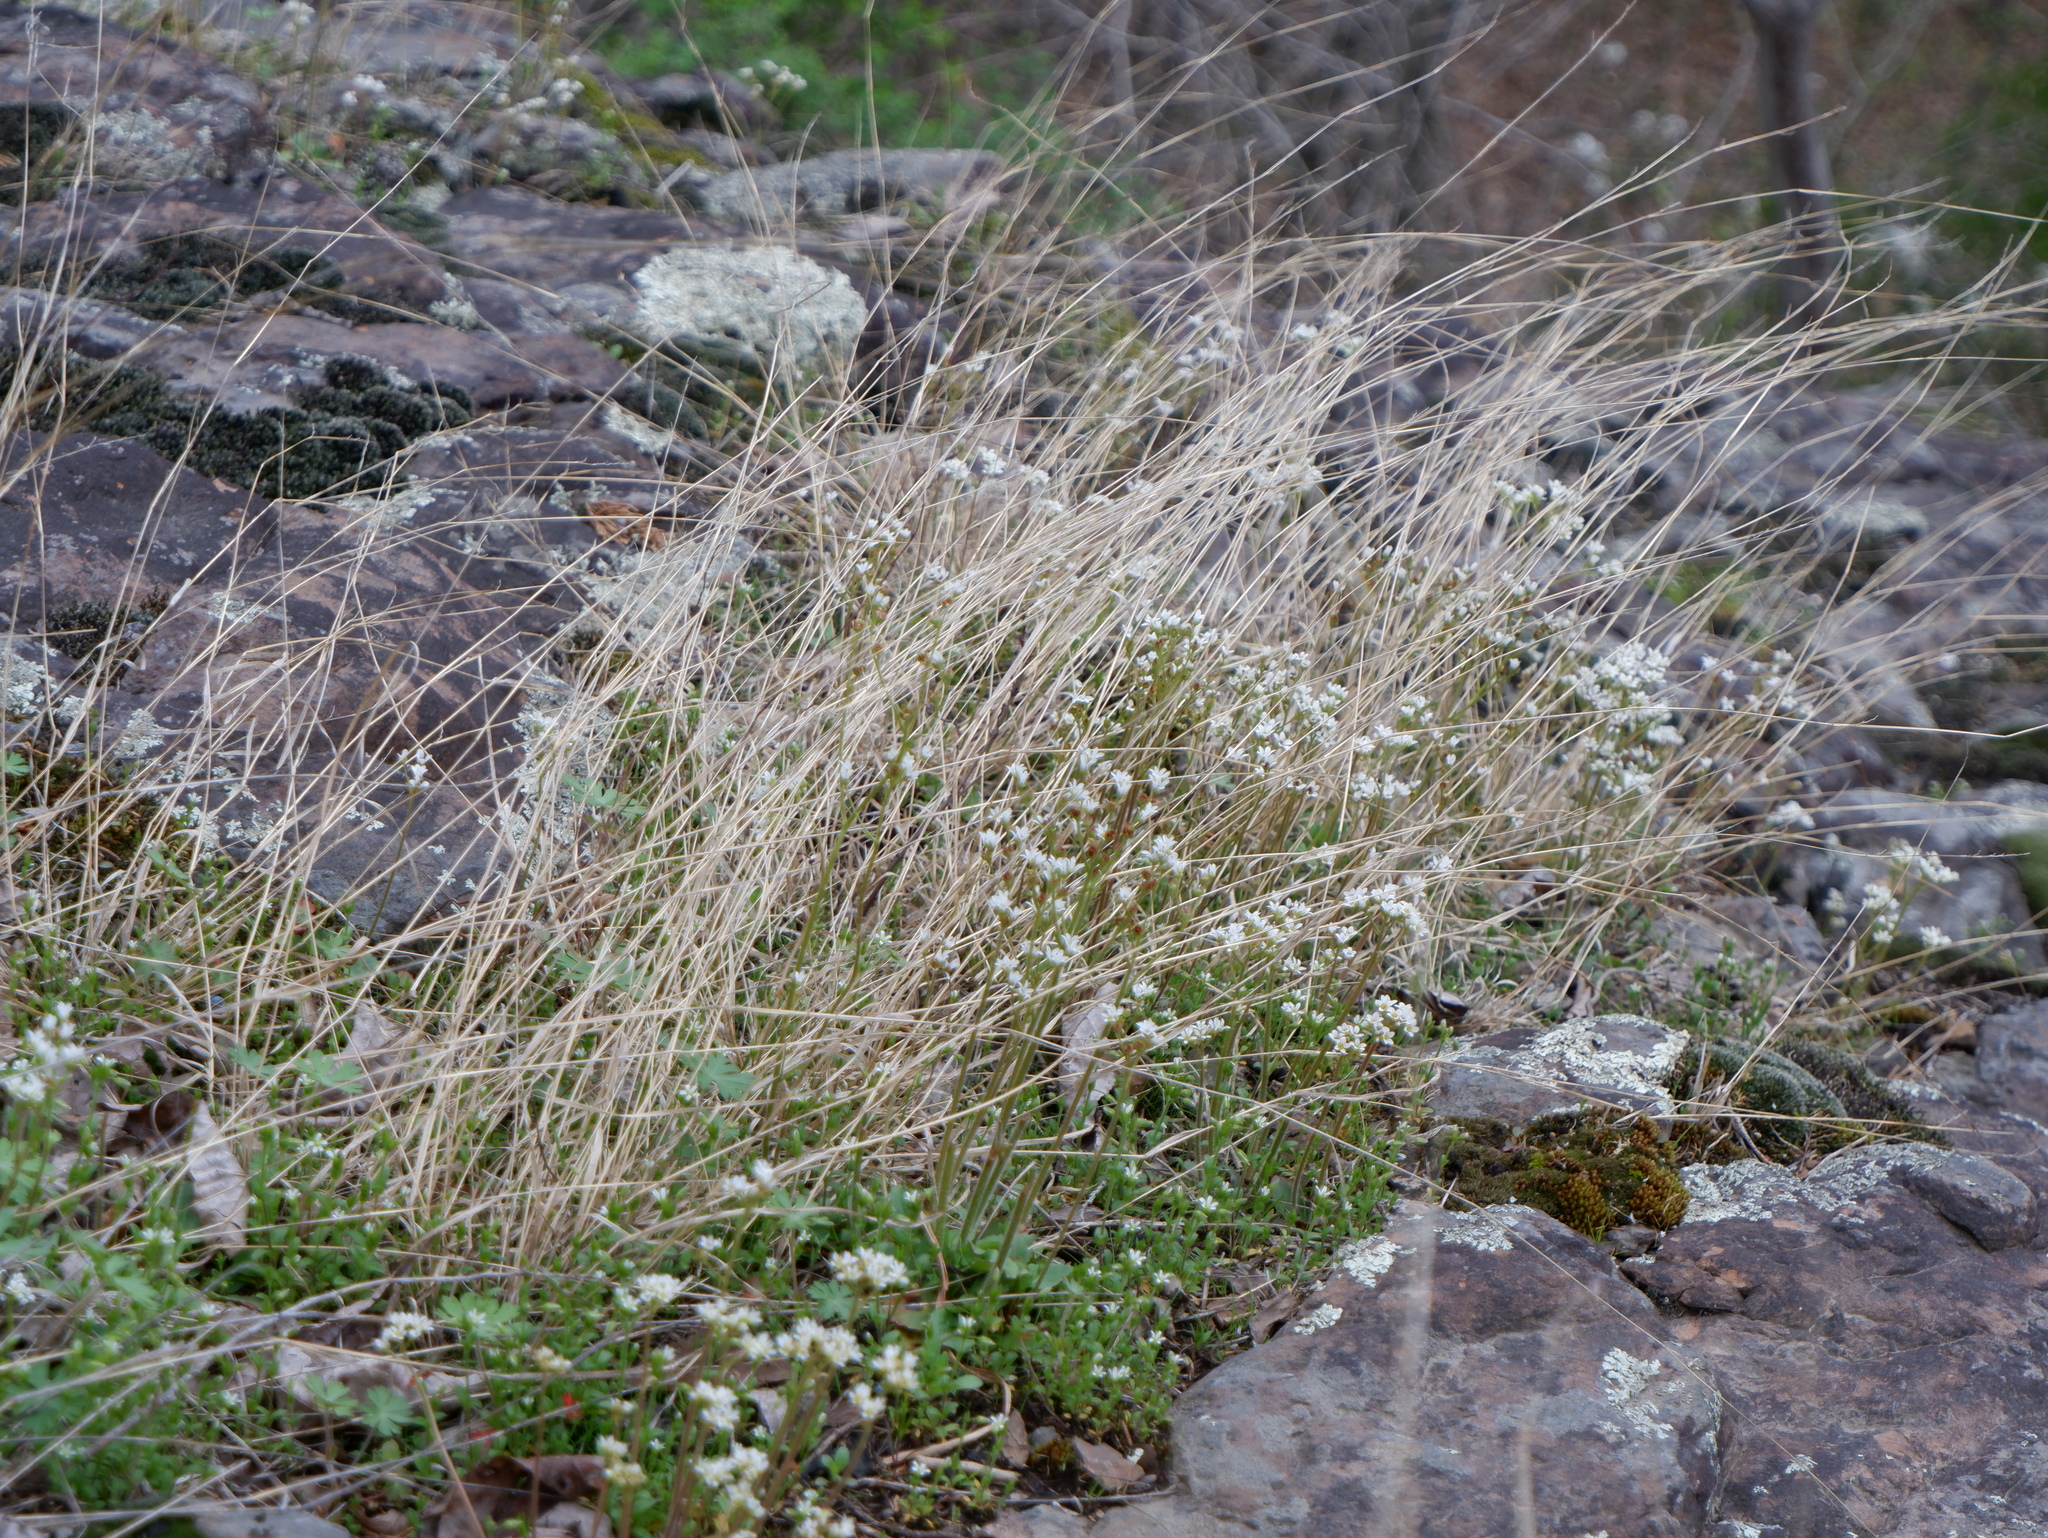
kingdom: Plantae
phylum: Tracheophyta
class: Magnoliopsida
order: Saxifragales
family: Saxifragaceae
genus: Micranthes
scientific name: Micranthes virginiensis
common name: Early saxifrage
